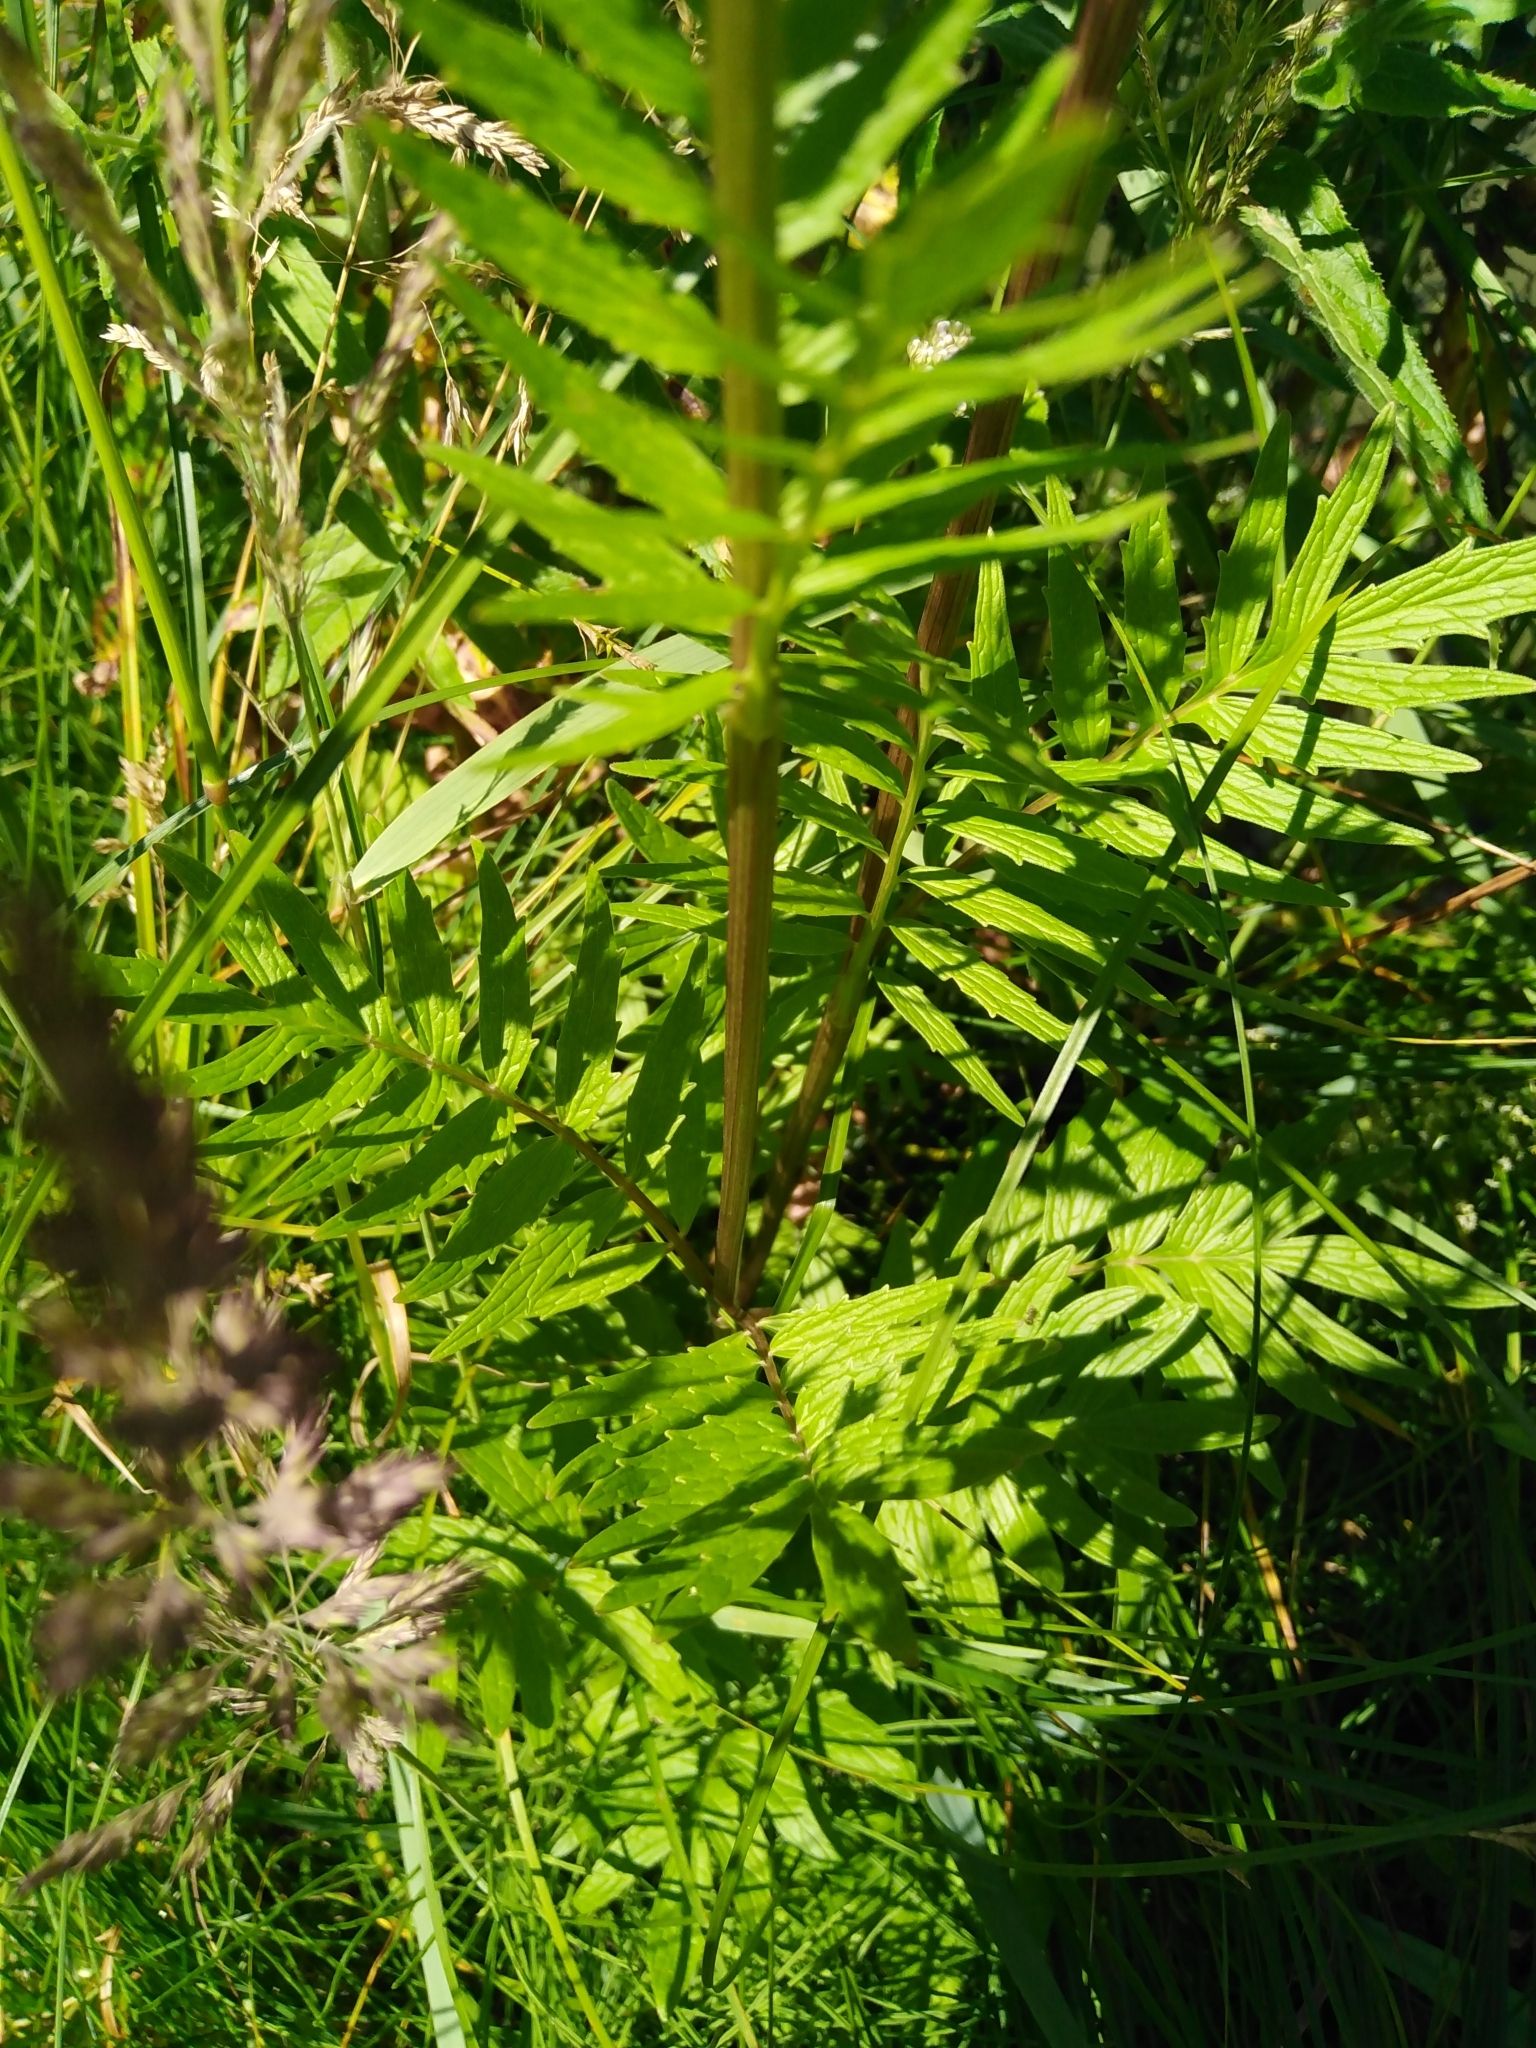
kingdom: Plantae
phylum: Tracheophyta
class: Magnoliopsida
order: Dipsacales
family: Caprifoliaceae
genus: Valeriana
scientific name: Valeriana officinalis
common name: Common valerian
